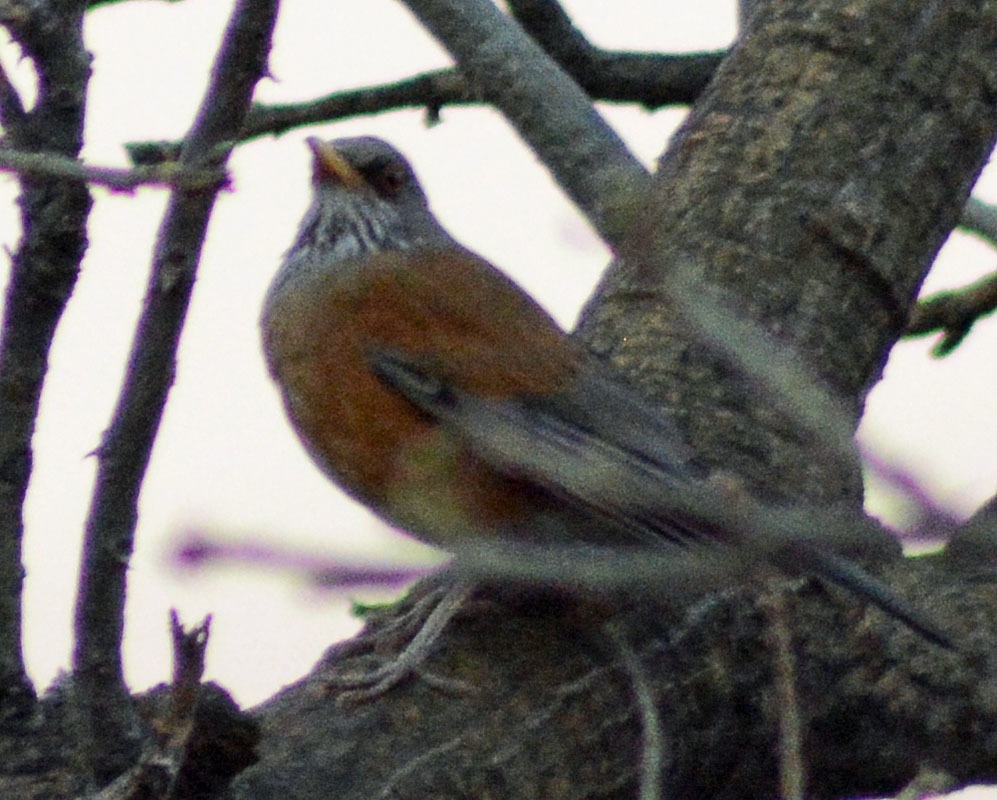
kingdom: Animalia
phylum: Chordata
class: Aves
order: Passeriformes
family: Turdidae
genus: Turdus
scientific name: Turdus rufopalliatus
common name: Rufous-backed robin
